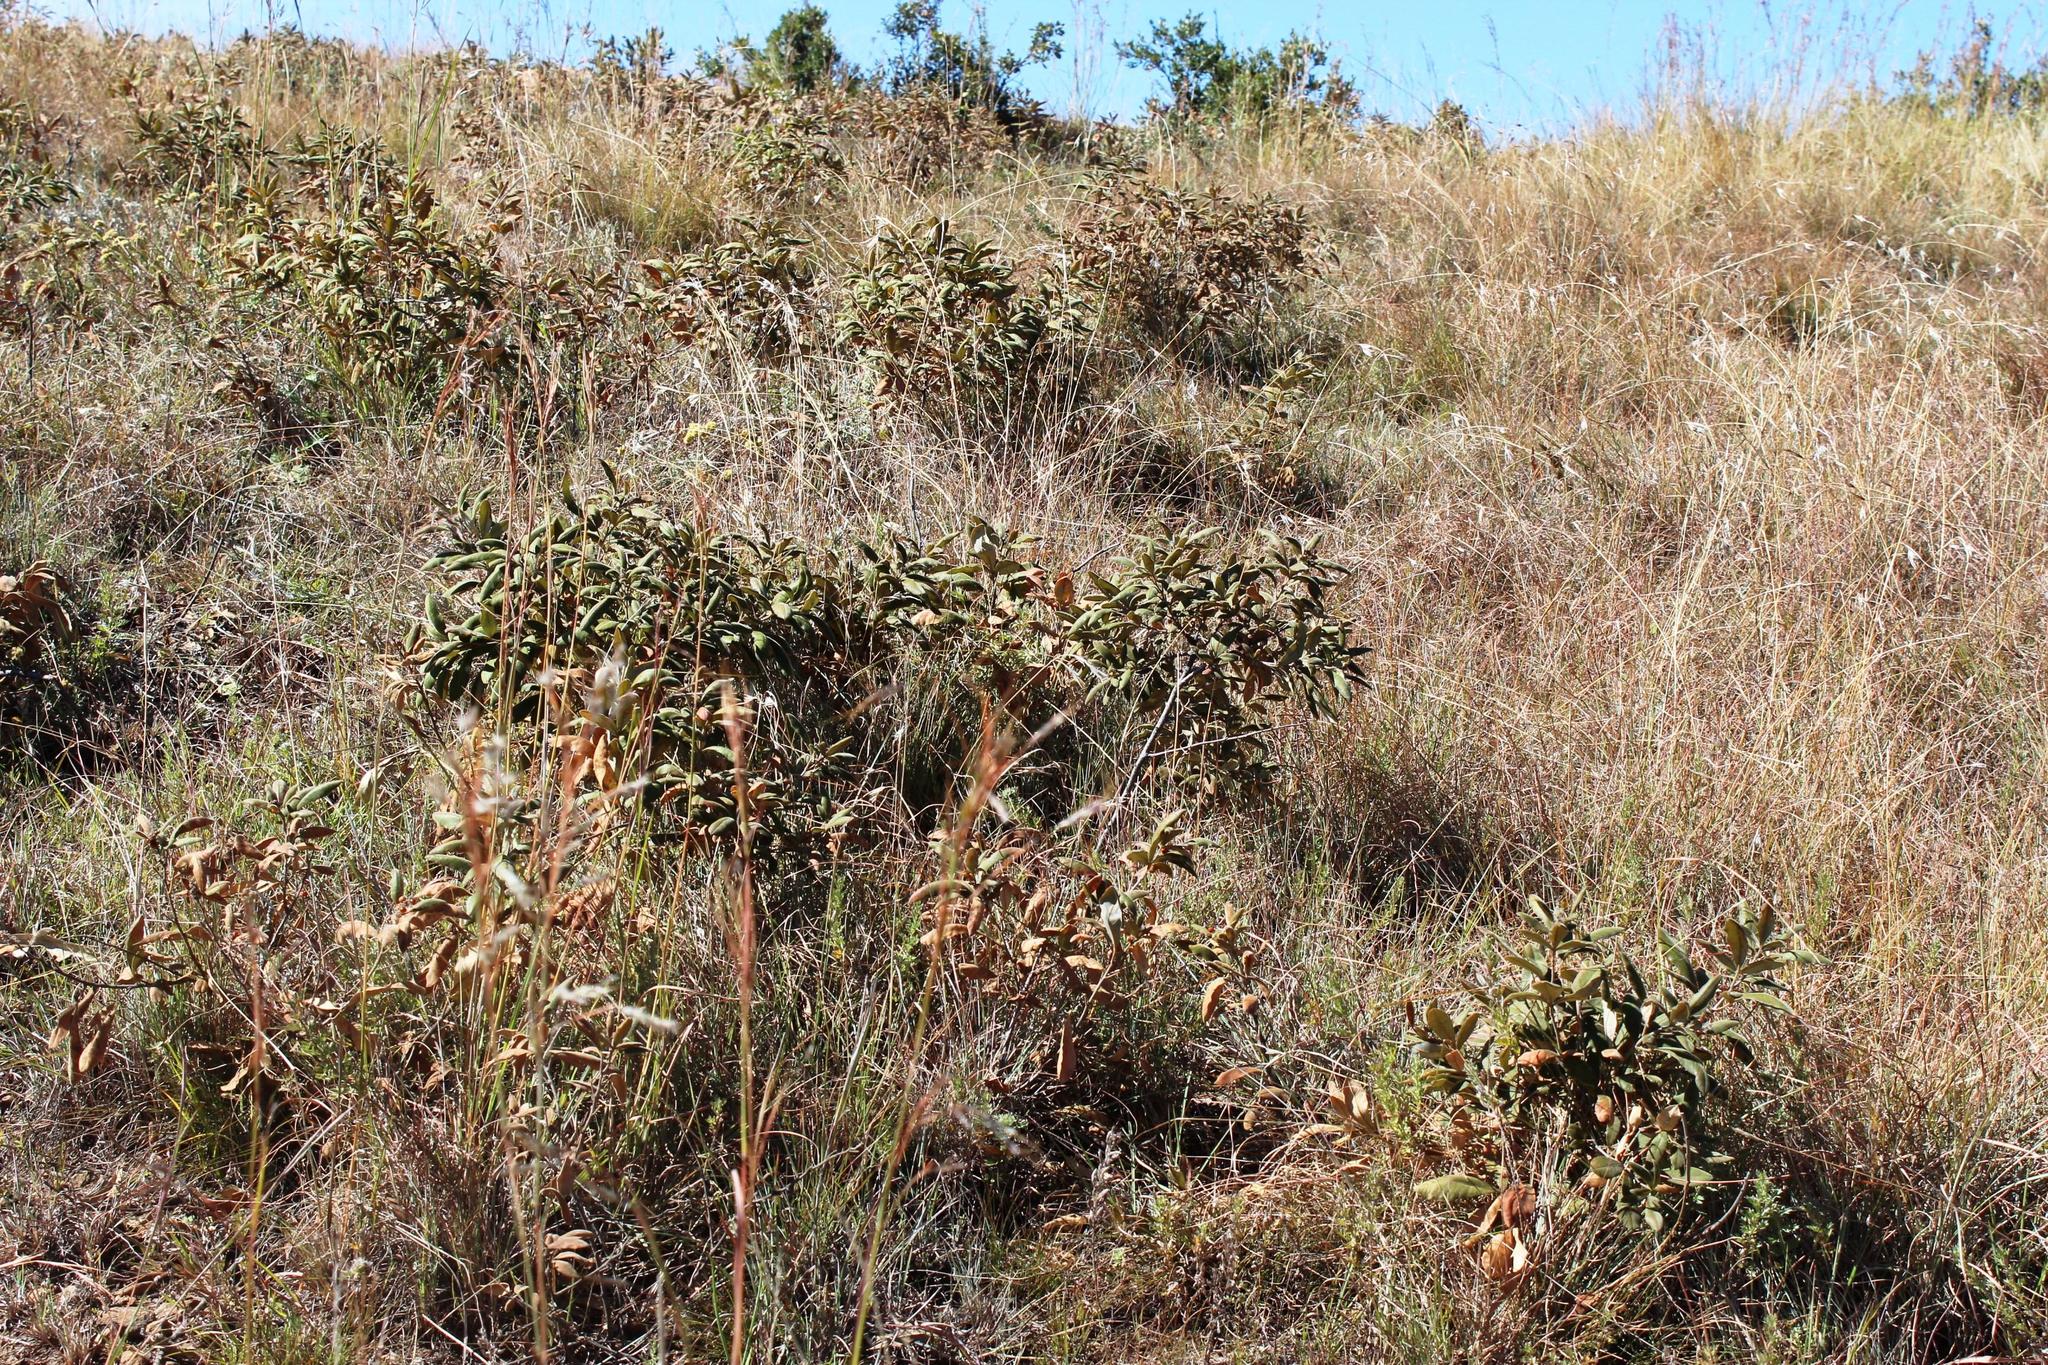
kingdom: Plantae
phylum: Tracheophyta
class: Magnoliopsida
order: Sapindales
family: Anacardiaceae
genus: Searsia
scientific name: Searsia discolor
